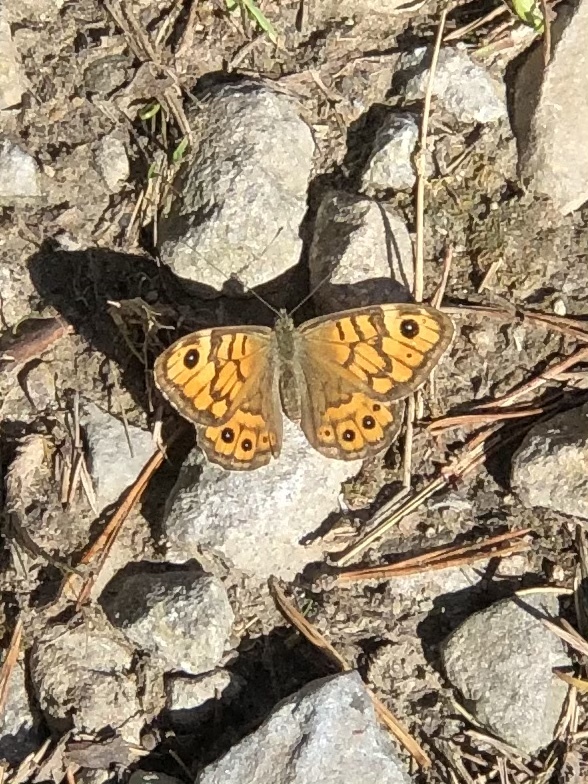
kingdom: Animalia
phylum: Arthropoda
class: Insecta
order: Lepidoptera
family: Nymphalidae
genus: Pararge
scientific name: Pararge Lasiommata megera
